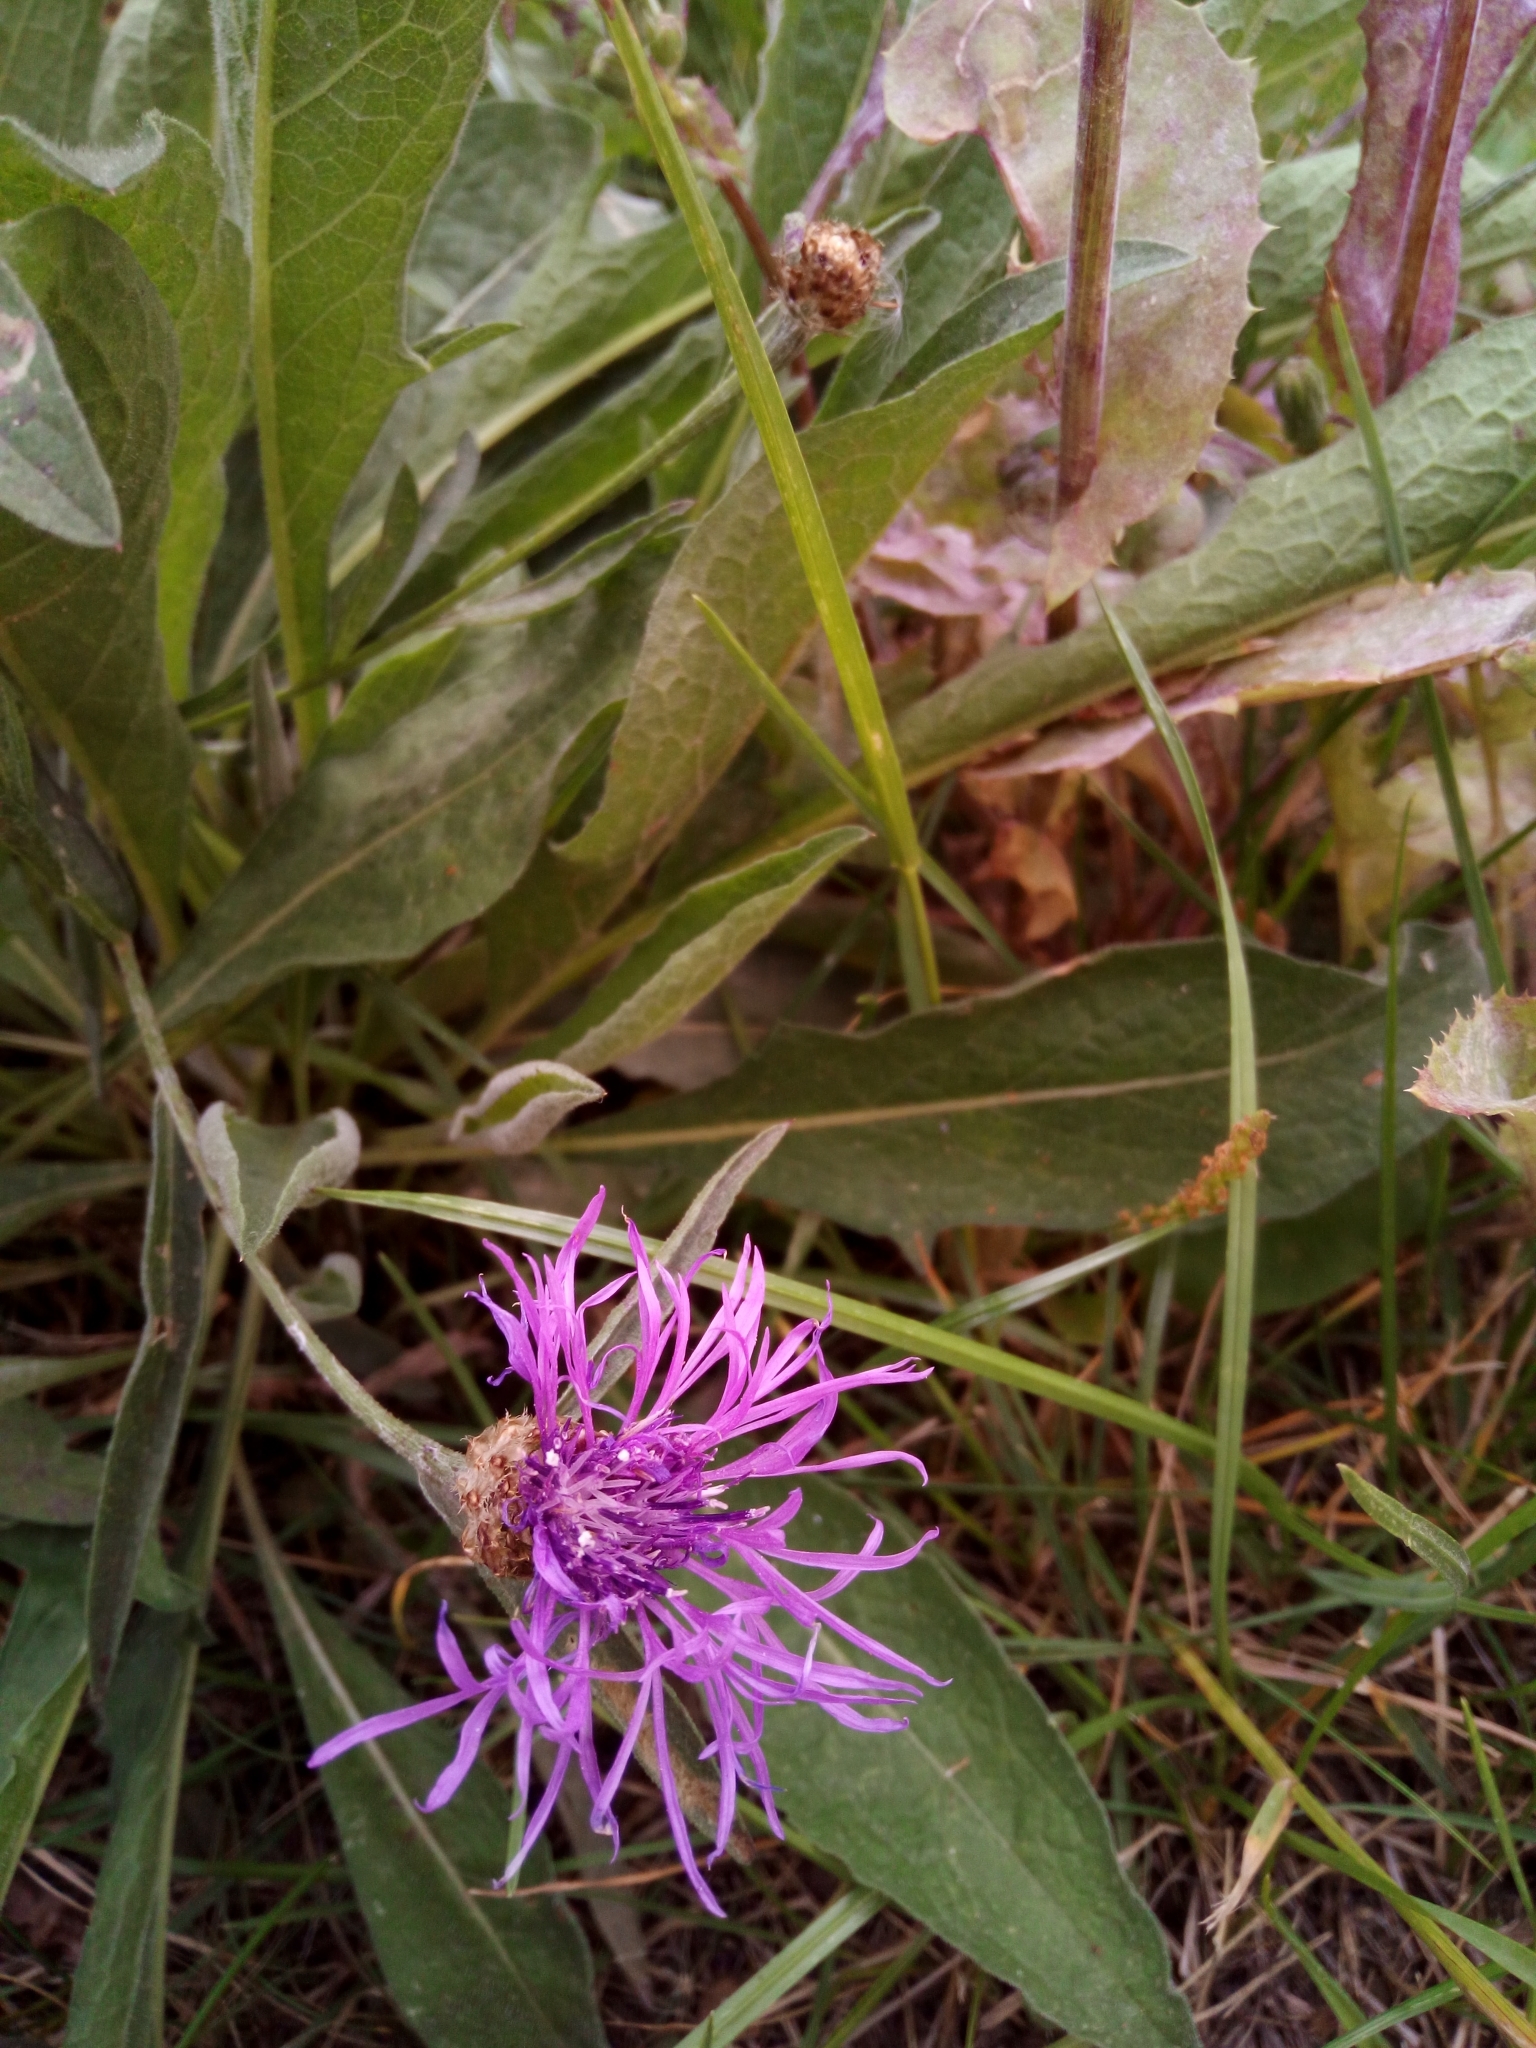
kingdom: Plantae
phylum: Tracheophyta
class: Magnoliopsida
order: Asterales
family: Asteraceae
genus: Centaurea
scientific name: Centaurea jacea
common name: Brown knapweed
